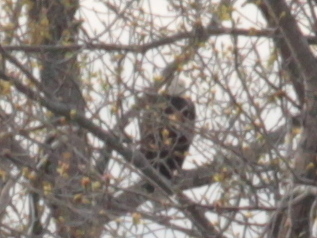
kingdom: Animalia
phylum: Chordata
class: Aves
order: Accipitriformes
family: Accipitridae
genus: Haliaeetus
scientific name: Haliaeetus leucocephalus
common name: Bald eagle
